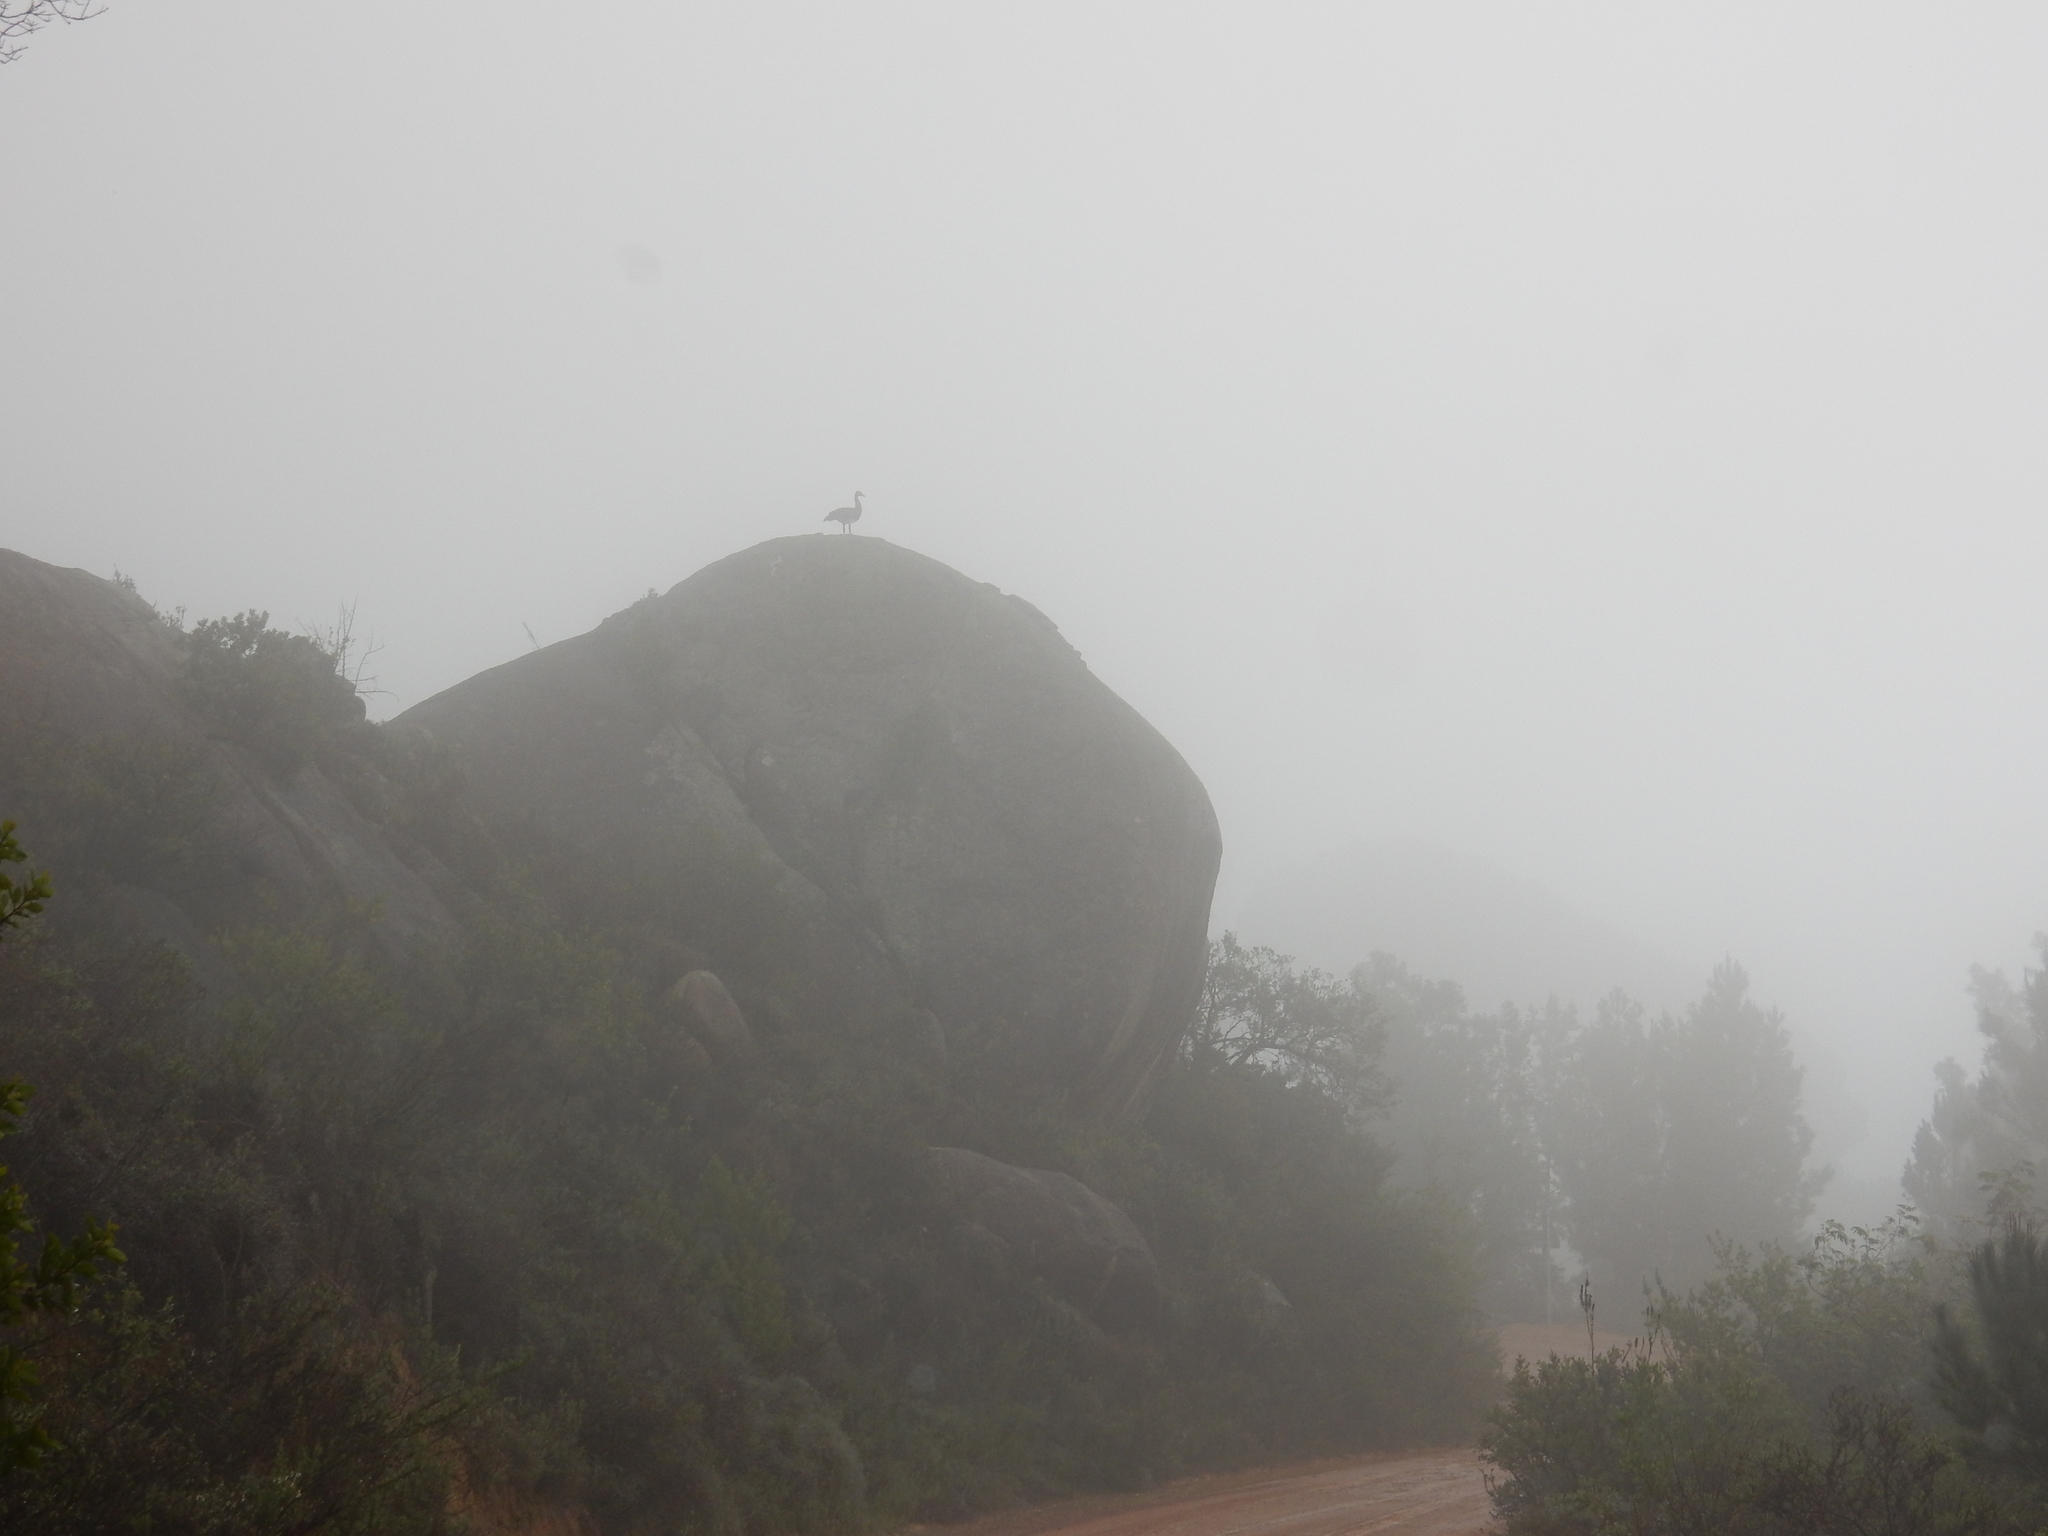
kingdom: Animalia
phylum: Chordata
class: Aves
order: Anseriformes
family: Anatidae
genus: Plectropterus
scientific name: Plectropterus gambensis
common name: Spur-winged goose
